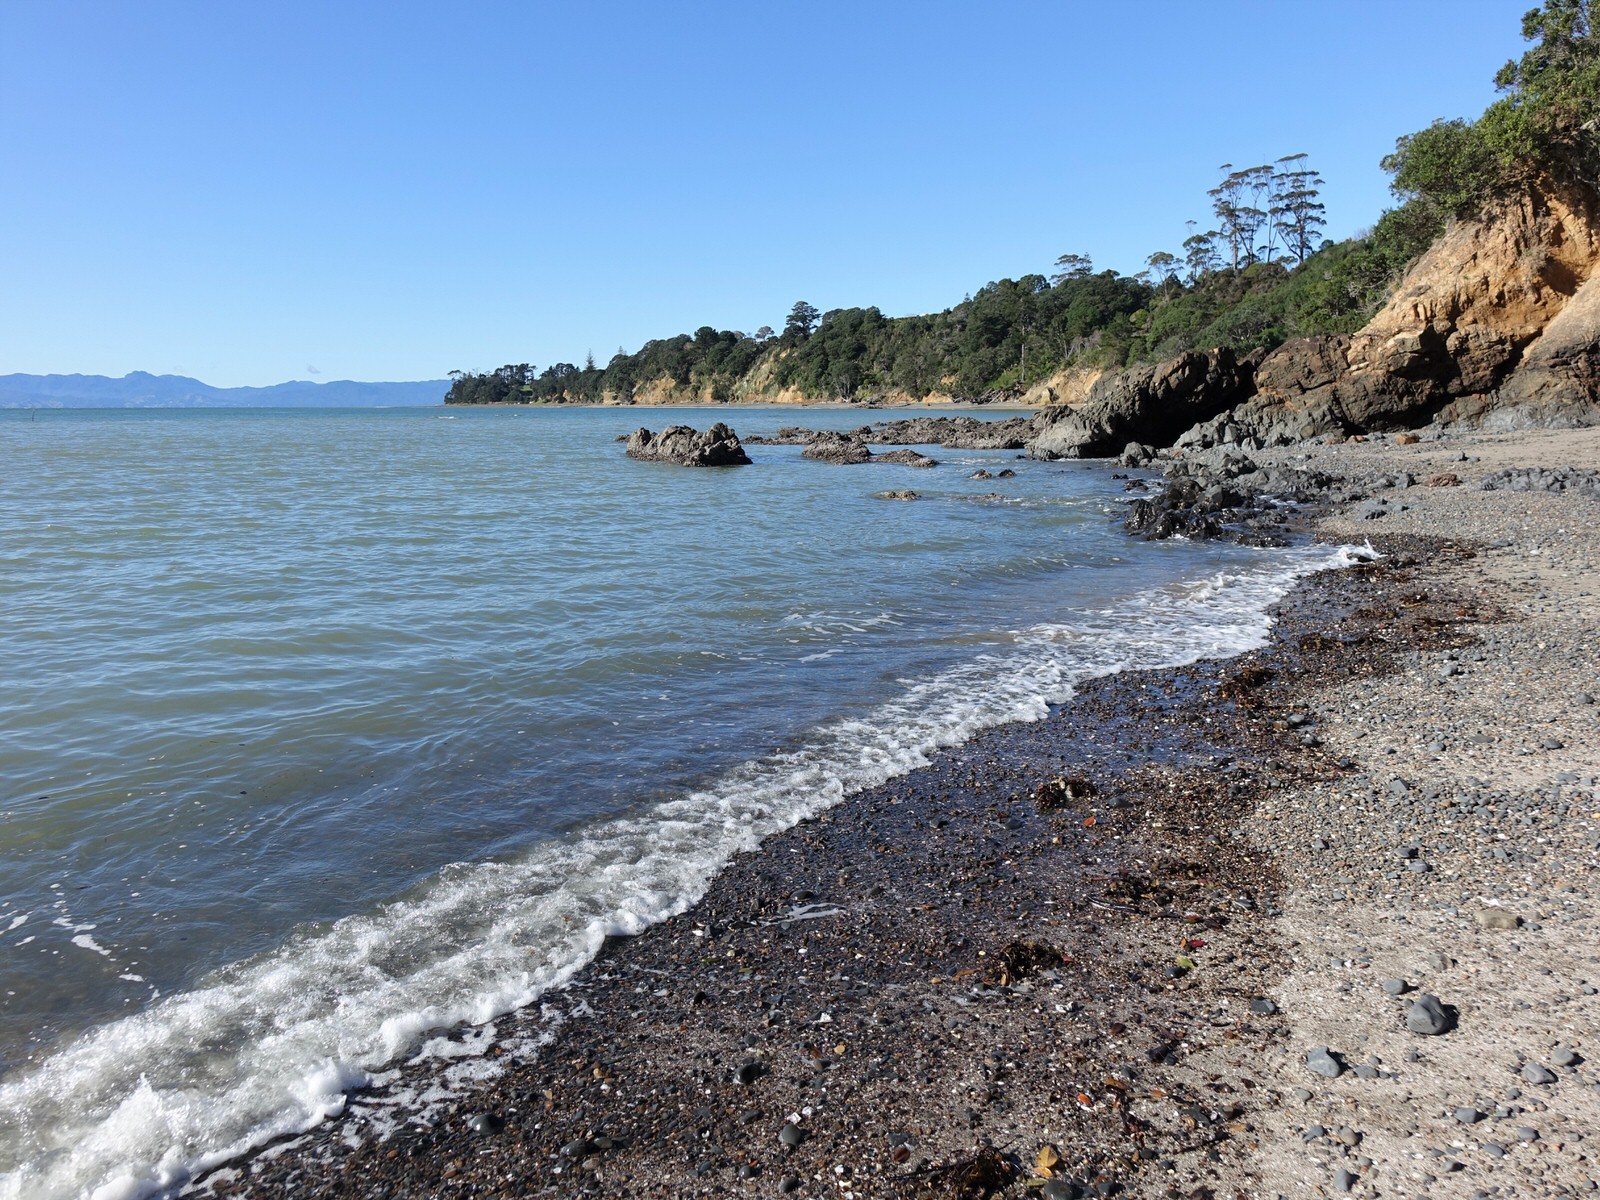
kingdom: Chromista
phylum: Ochrophyta
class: Phaeophyceae
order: Laminariales
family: Lessoniaceae
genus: Ecklonia
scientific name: Ecklonia radiata
